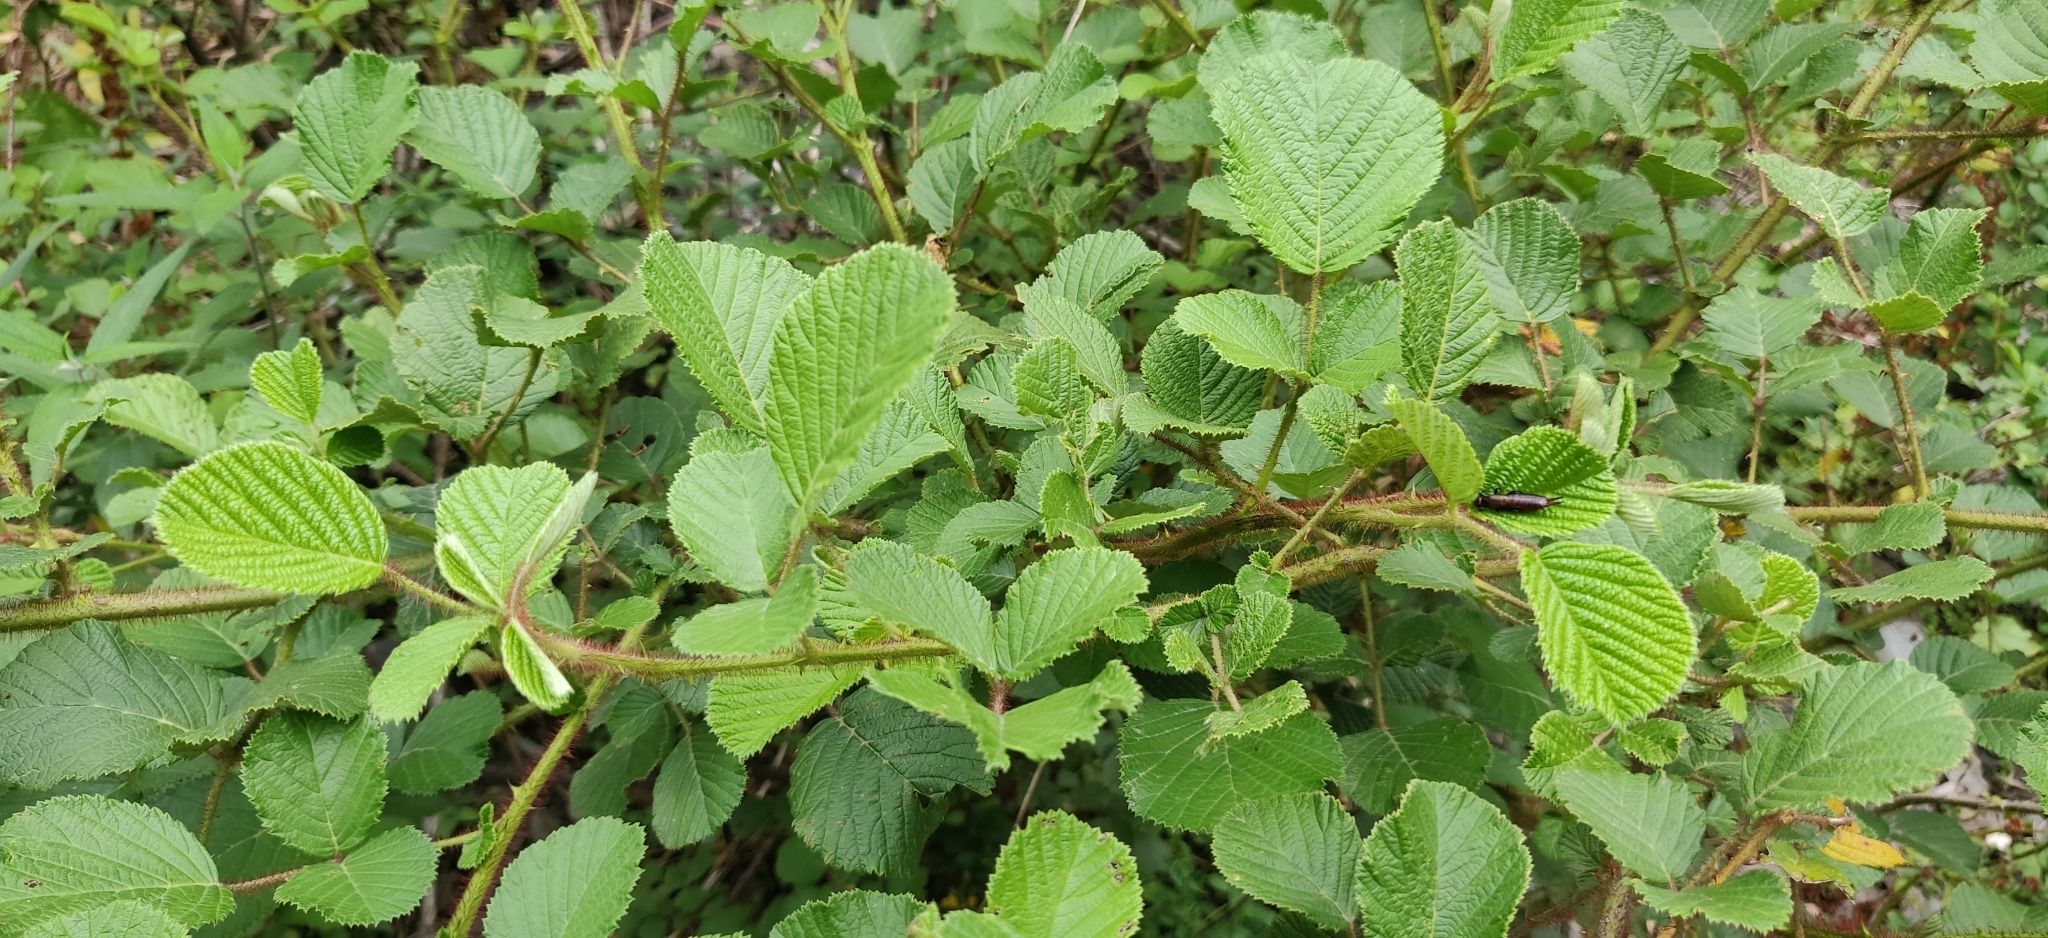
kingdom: Plantae
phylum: Tracheophyta
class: Magnoliopsida
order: Rosales
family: Rosaceae
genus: Rubus
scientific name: Rubus ellipticus
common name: Cheeseberry
